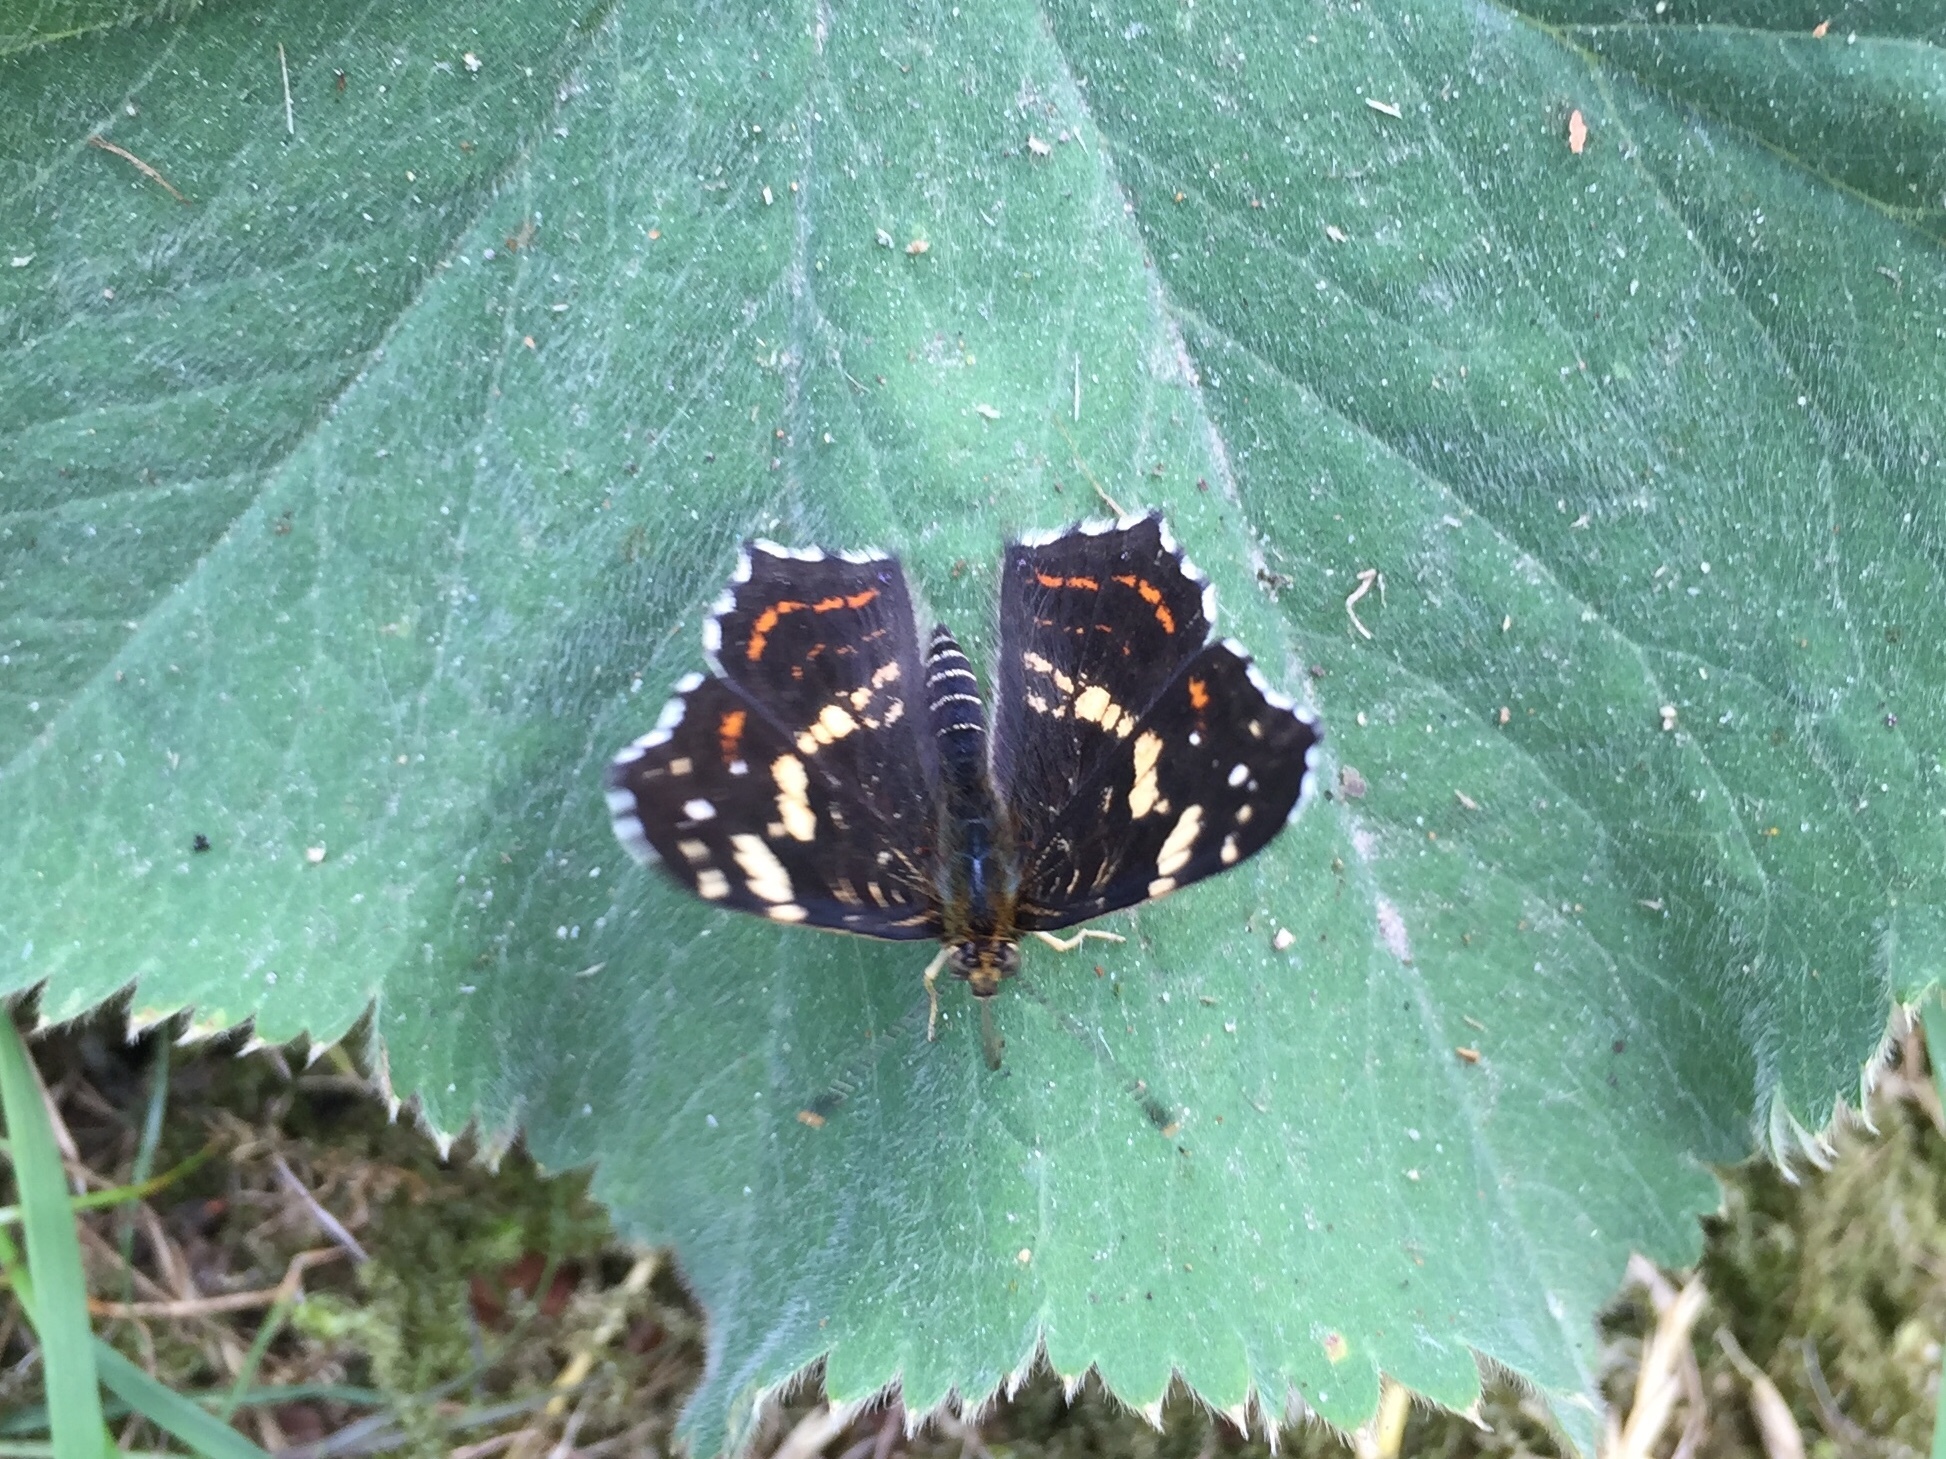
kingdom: Animalia
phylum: Arthropoda
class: Insecta
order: Lepidoptera
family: Nymphalidae
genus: Araschnia
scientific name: Araschnia levana
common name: Map butterfly
